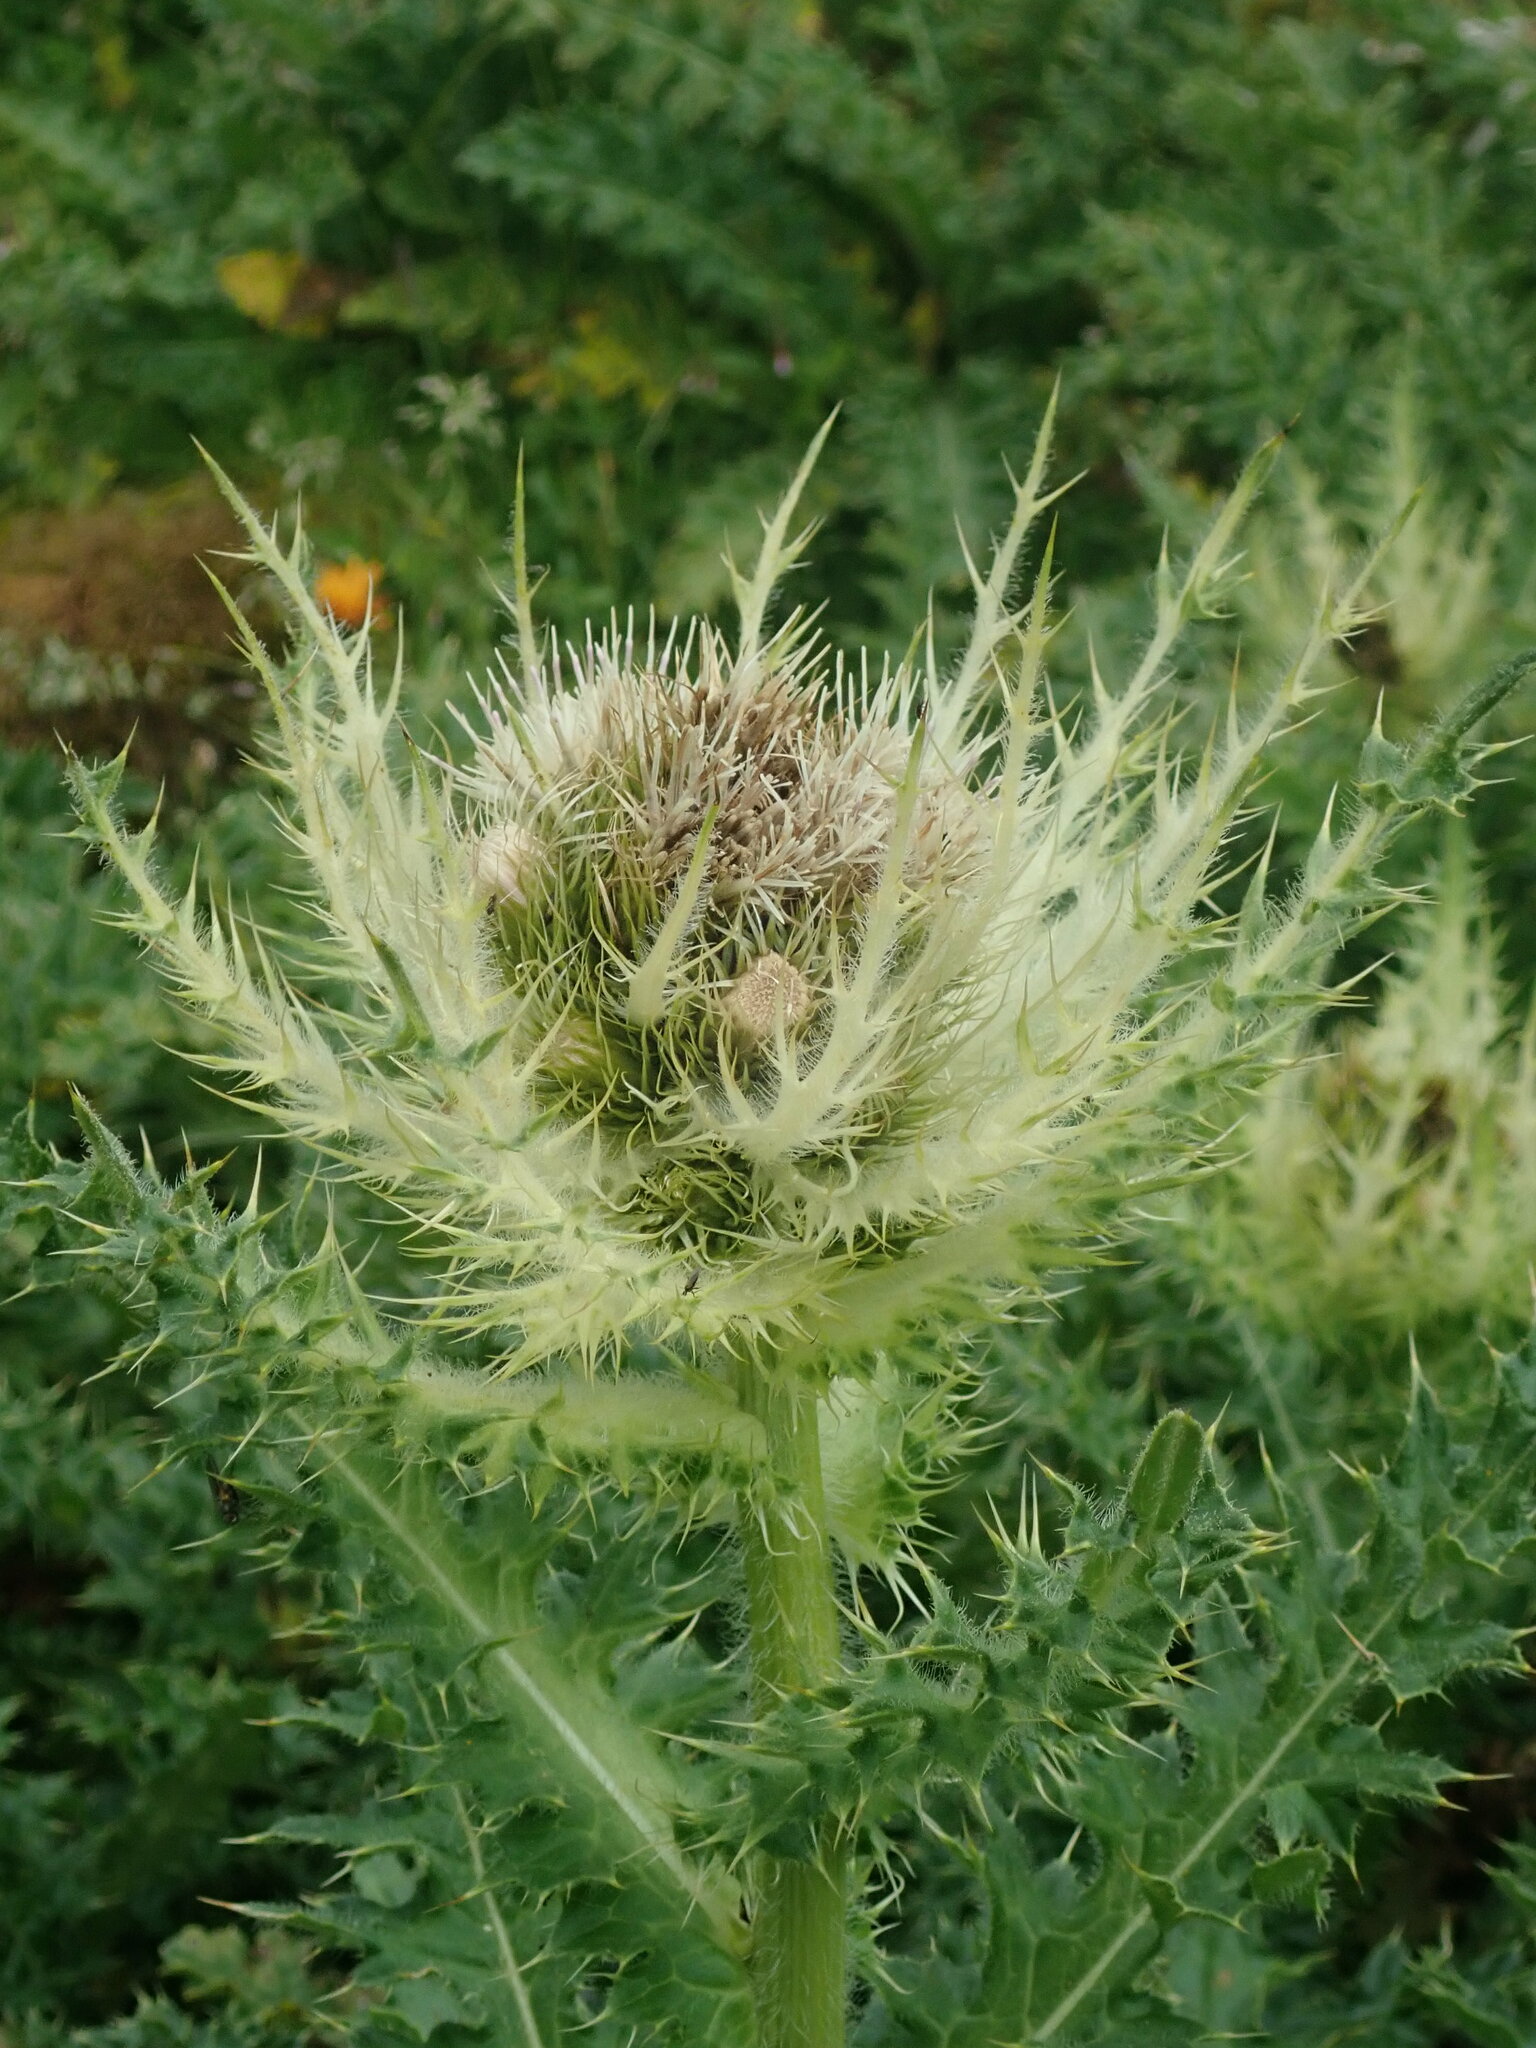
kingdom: Plantae
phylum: Tracheophyta
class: Magnoliopsida
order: Asterales
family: Asteraceae
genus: Cirsium
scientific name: Cirsium spinosissimum
